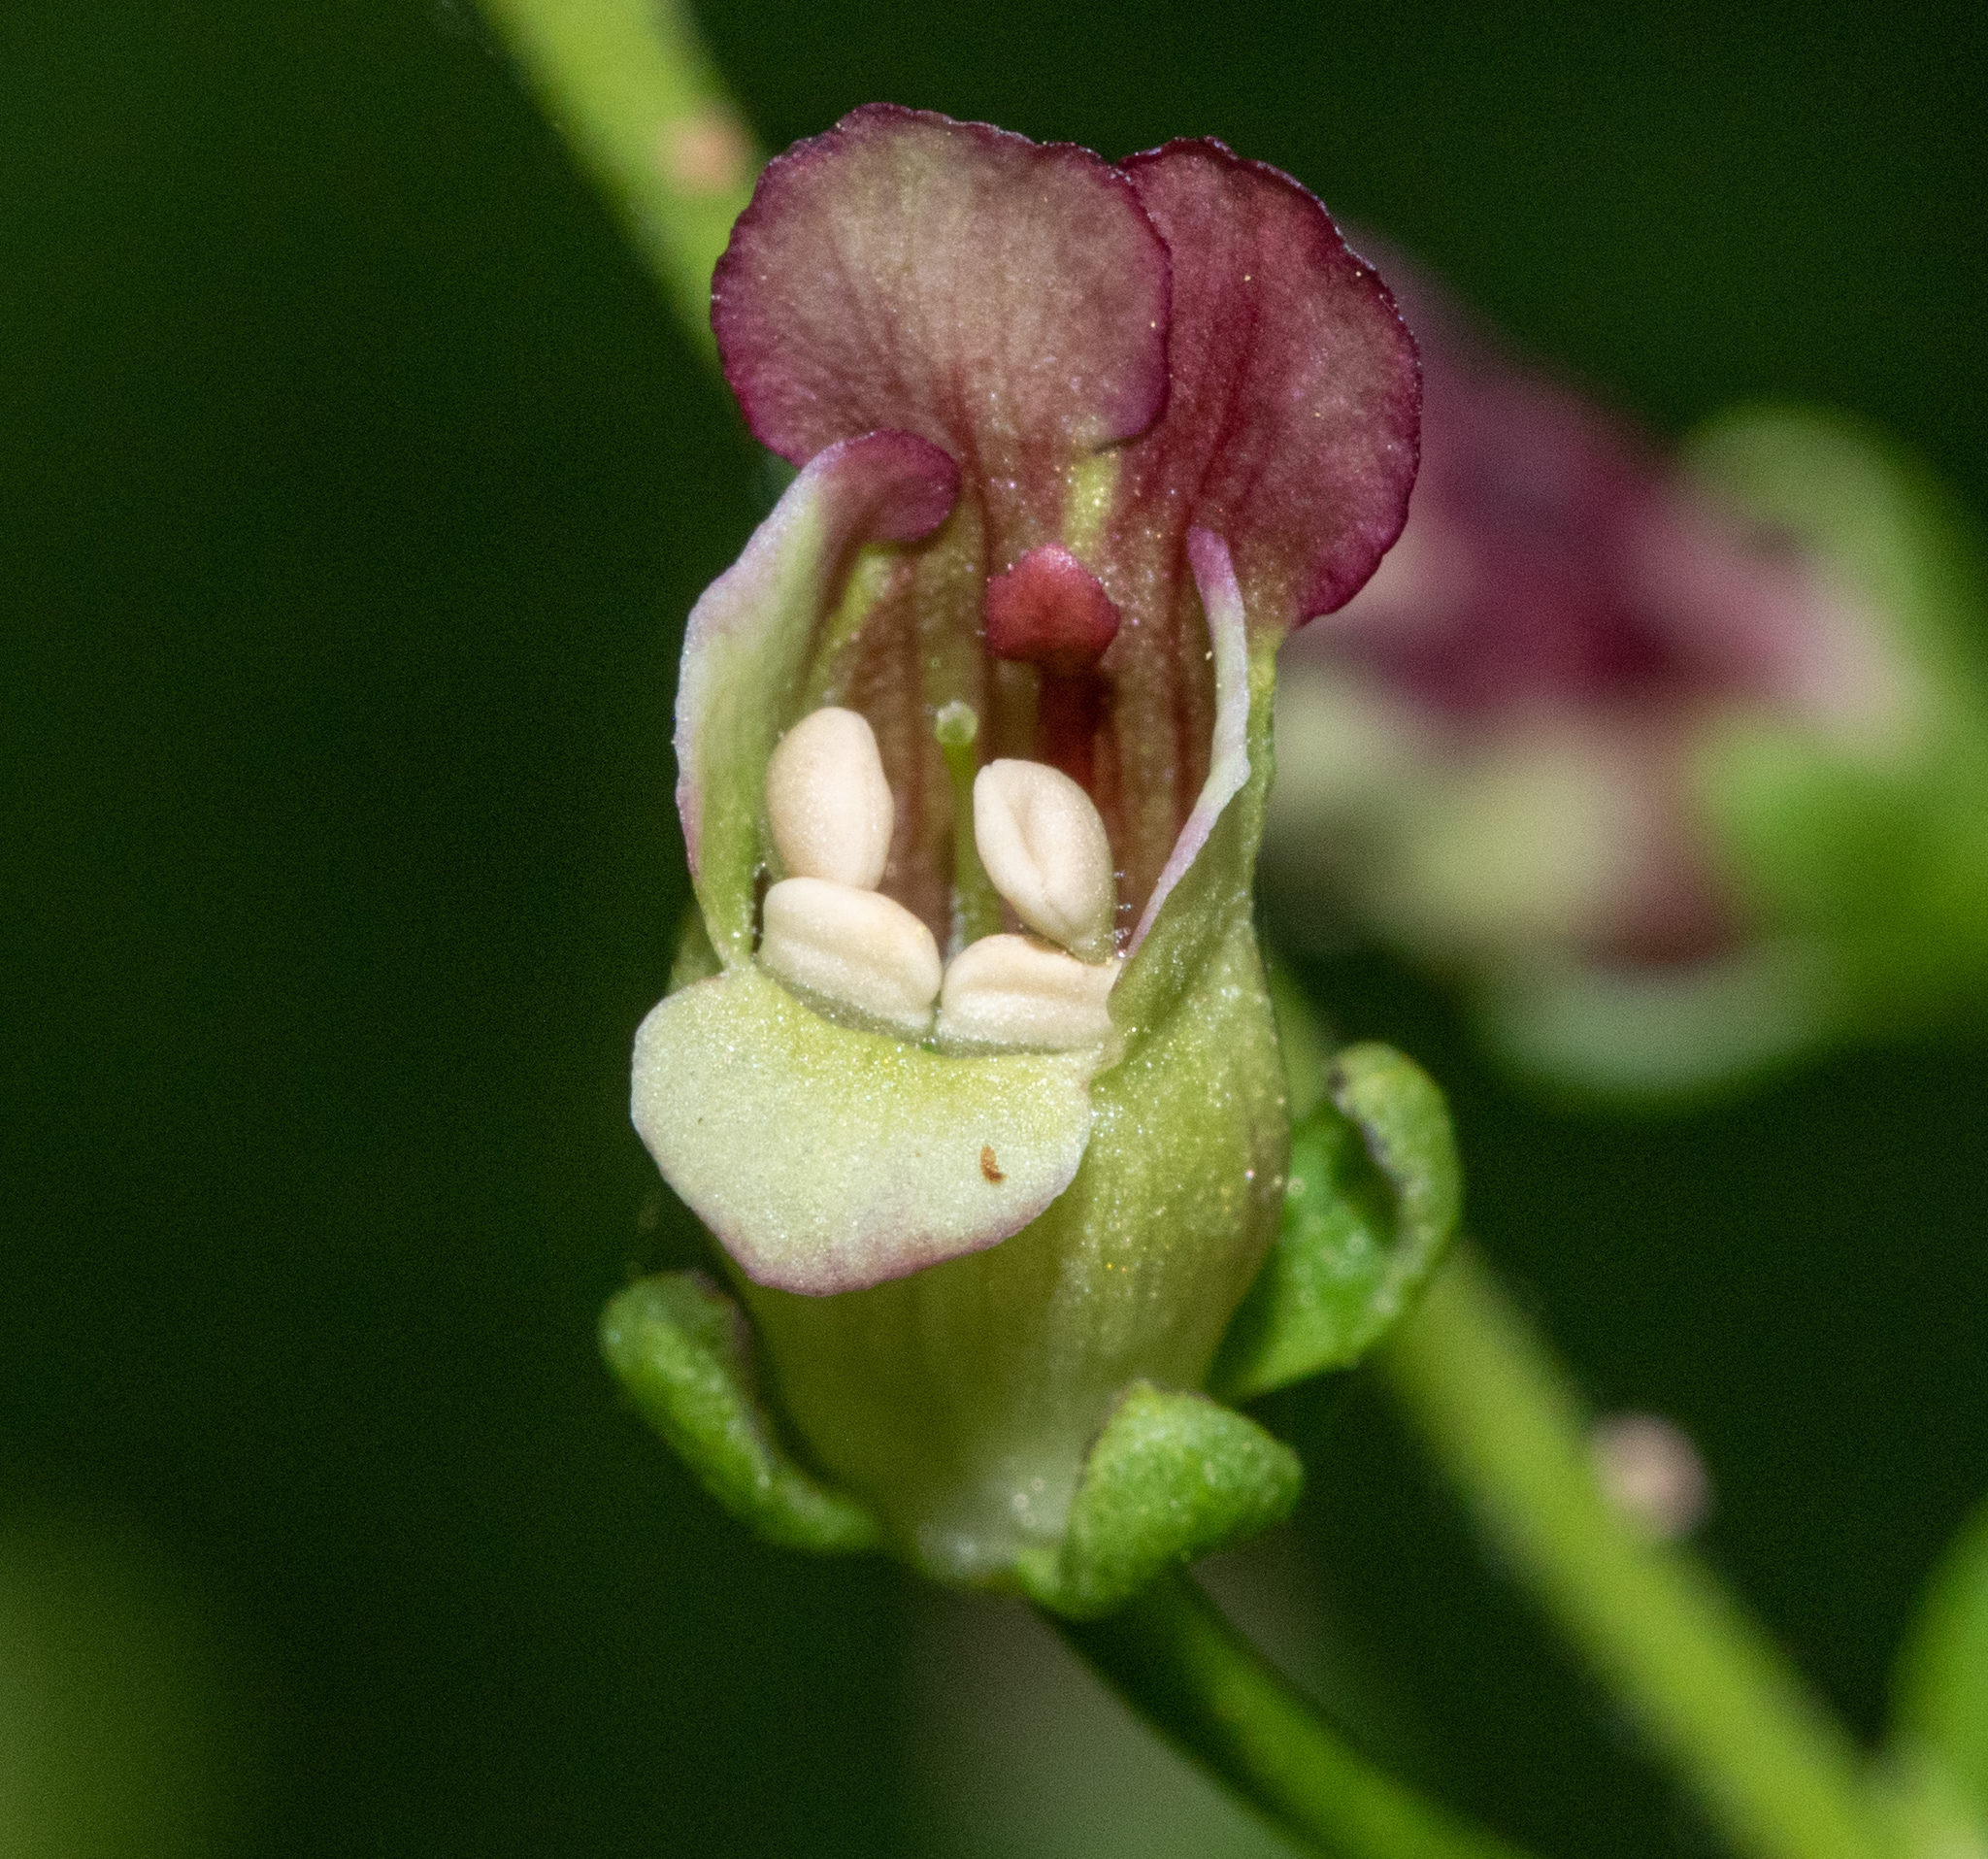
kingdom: Plantae
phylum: Tracheophyta
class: Magnoliopsida
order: Lamiales
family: Scrophulariaceae
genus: Scrophularia
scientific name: Scrophularia californica
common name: California figwort
